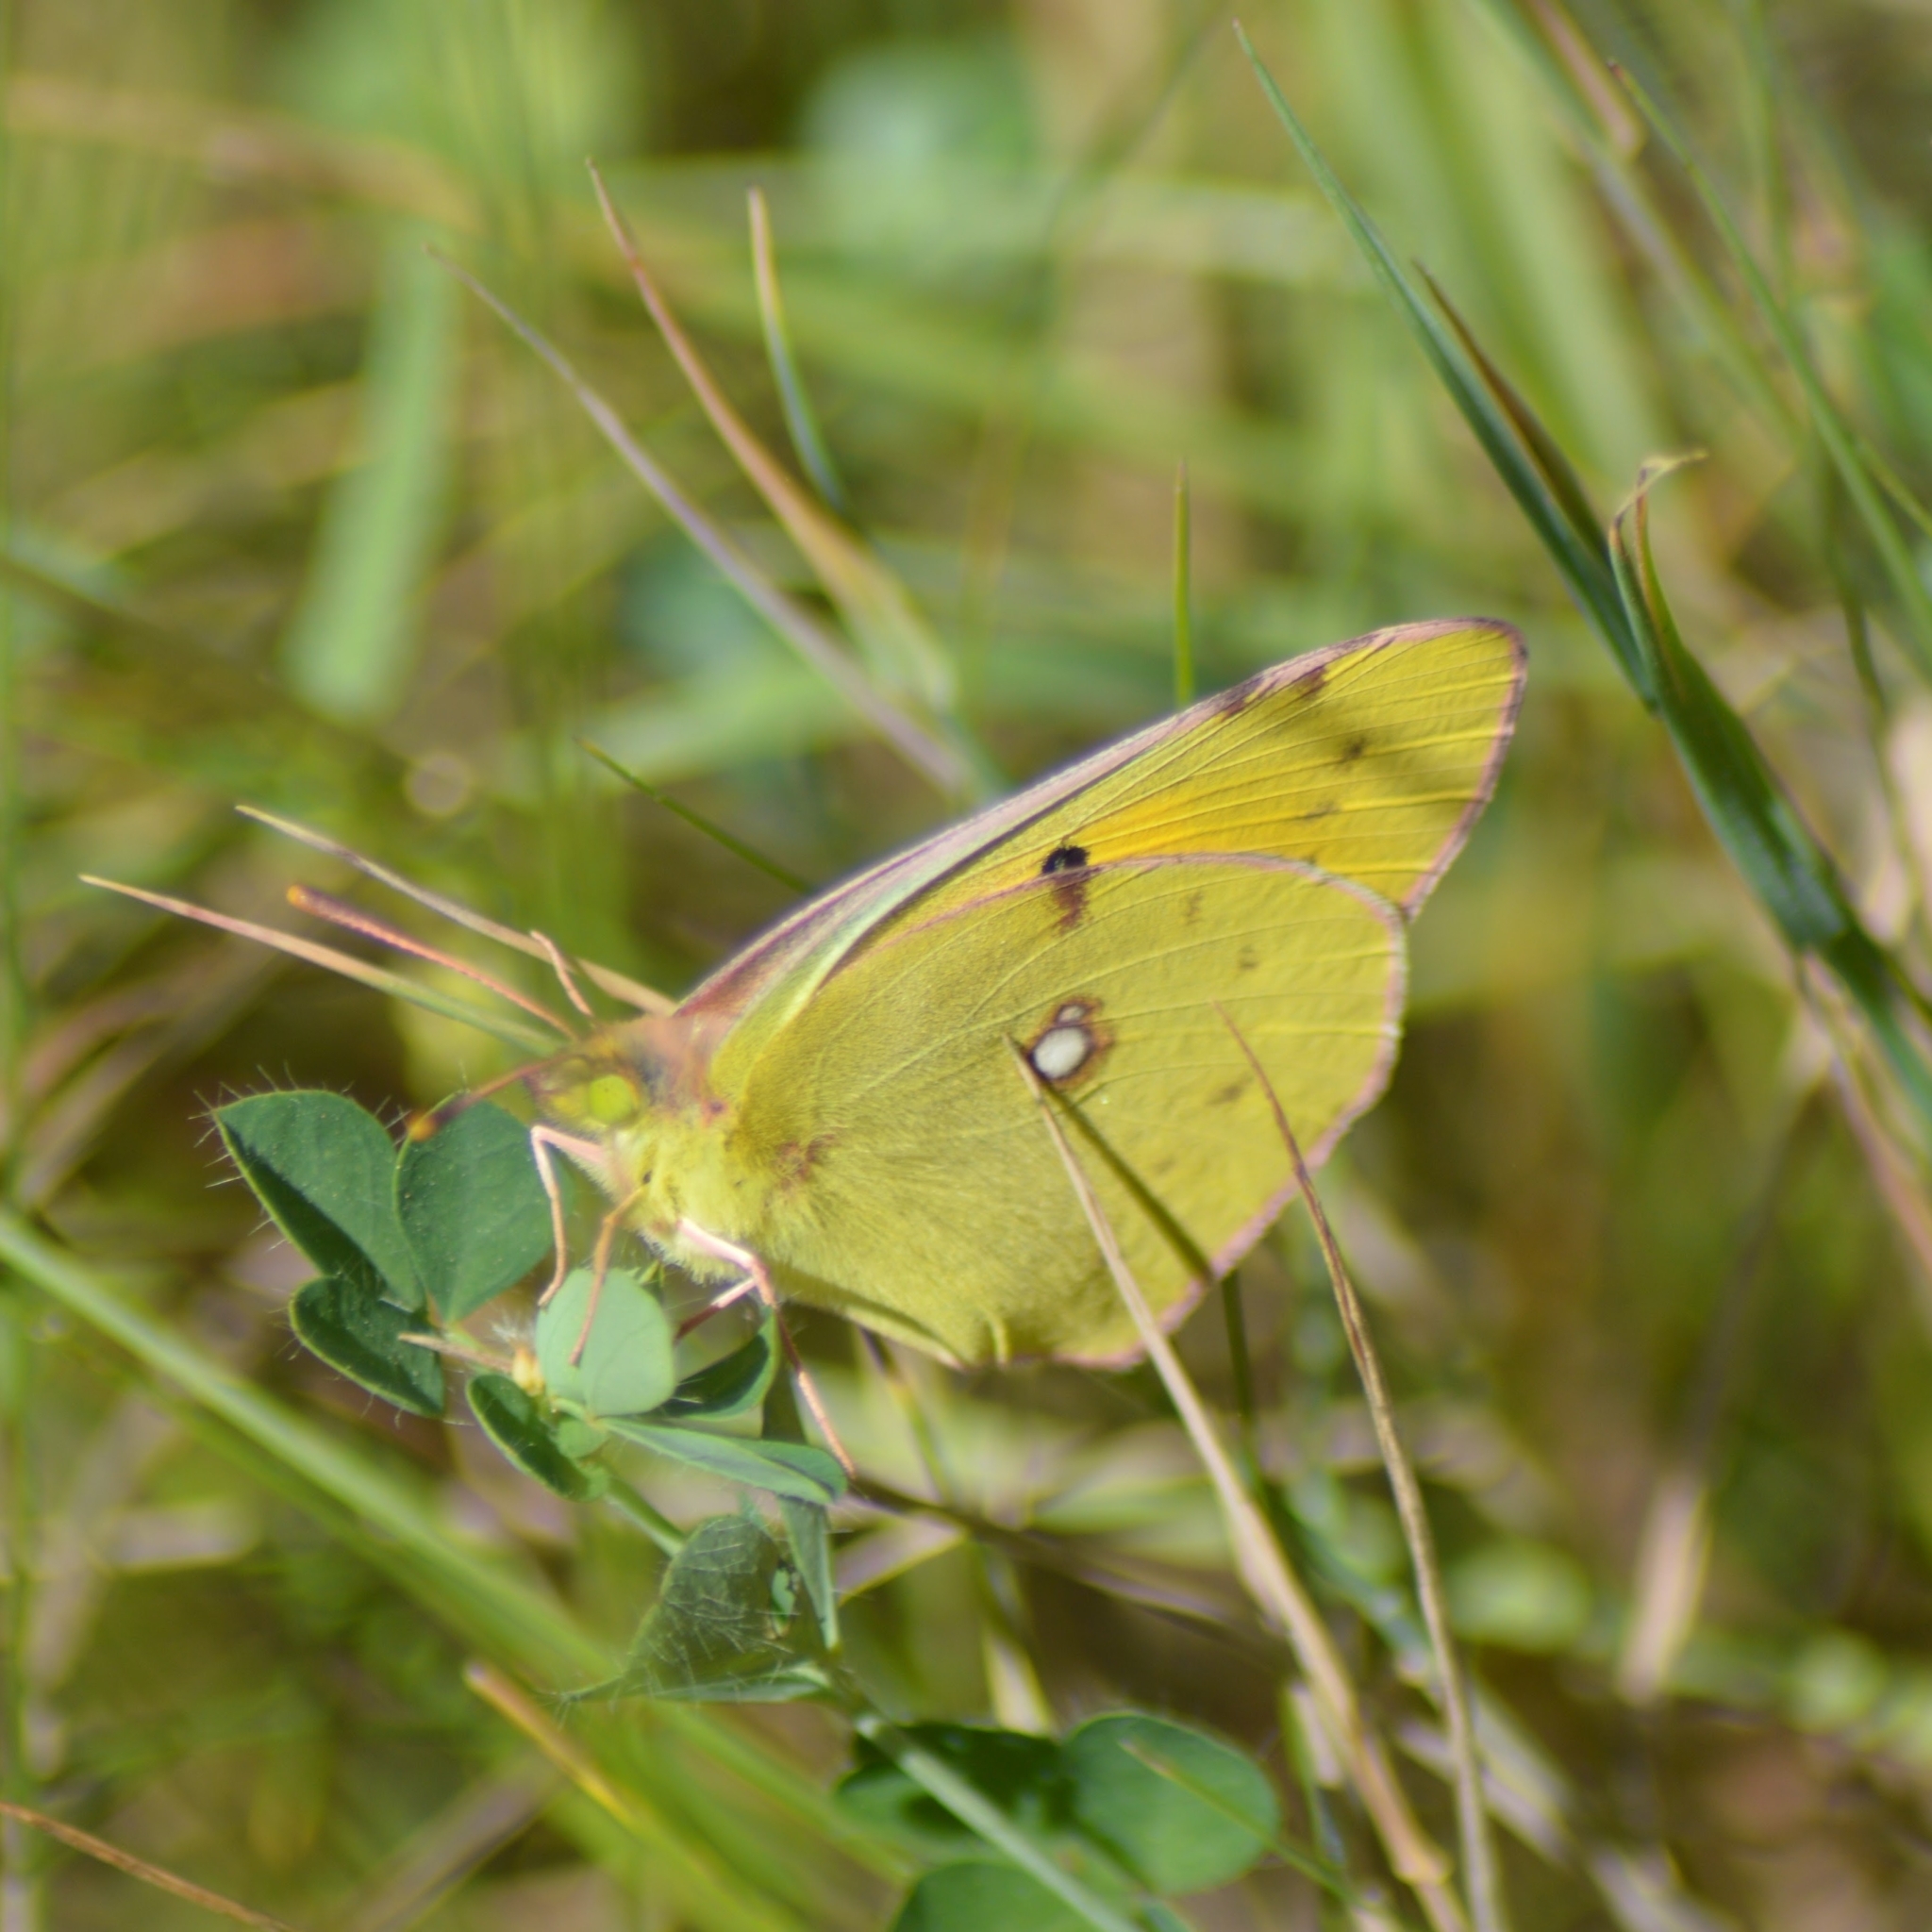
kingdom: Animalia
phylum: Arthropoda
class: Insecta
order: Lepidoptera
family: Pieridae
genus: Colias
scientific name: Colias croceus
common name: Clouded yellow
